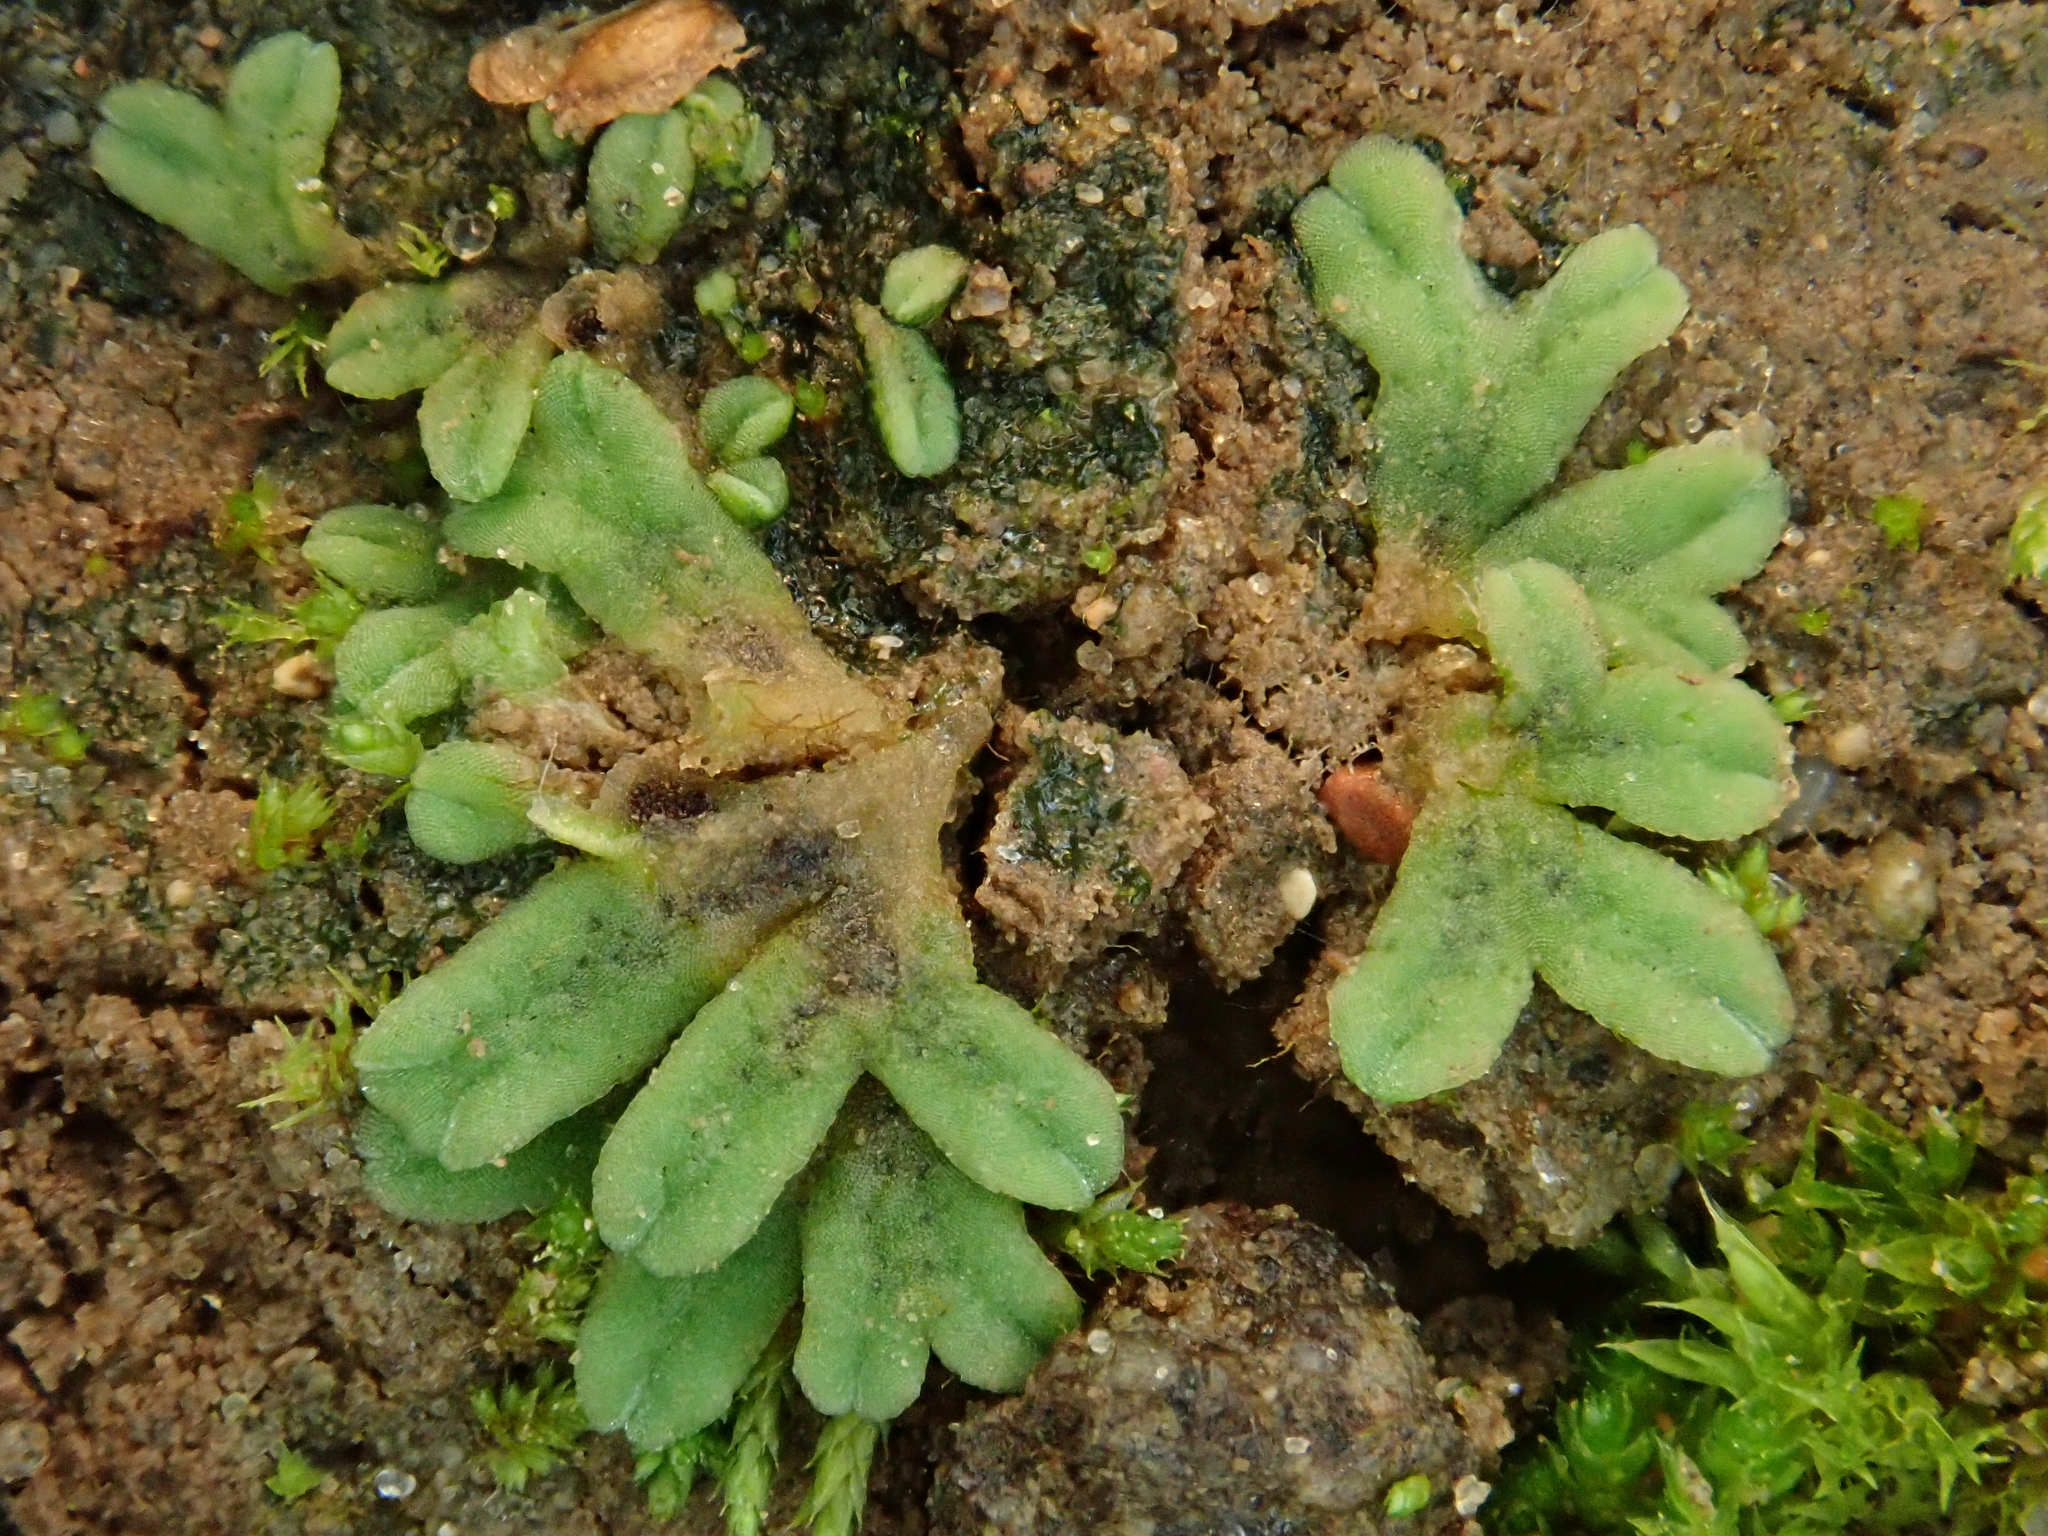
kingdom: Plantae
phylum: Marchantiophyta
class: Marchantiopsida
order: Marchantiales
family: Ricciaceae
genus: Riccia
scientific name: Riccia sorocarpa
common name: Common crystalwort
